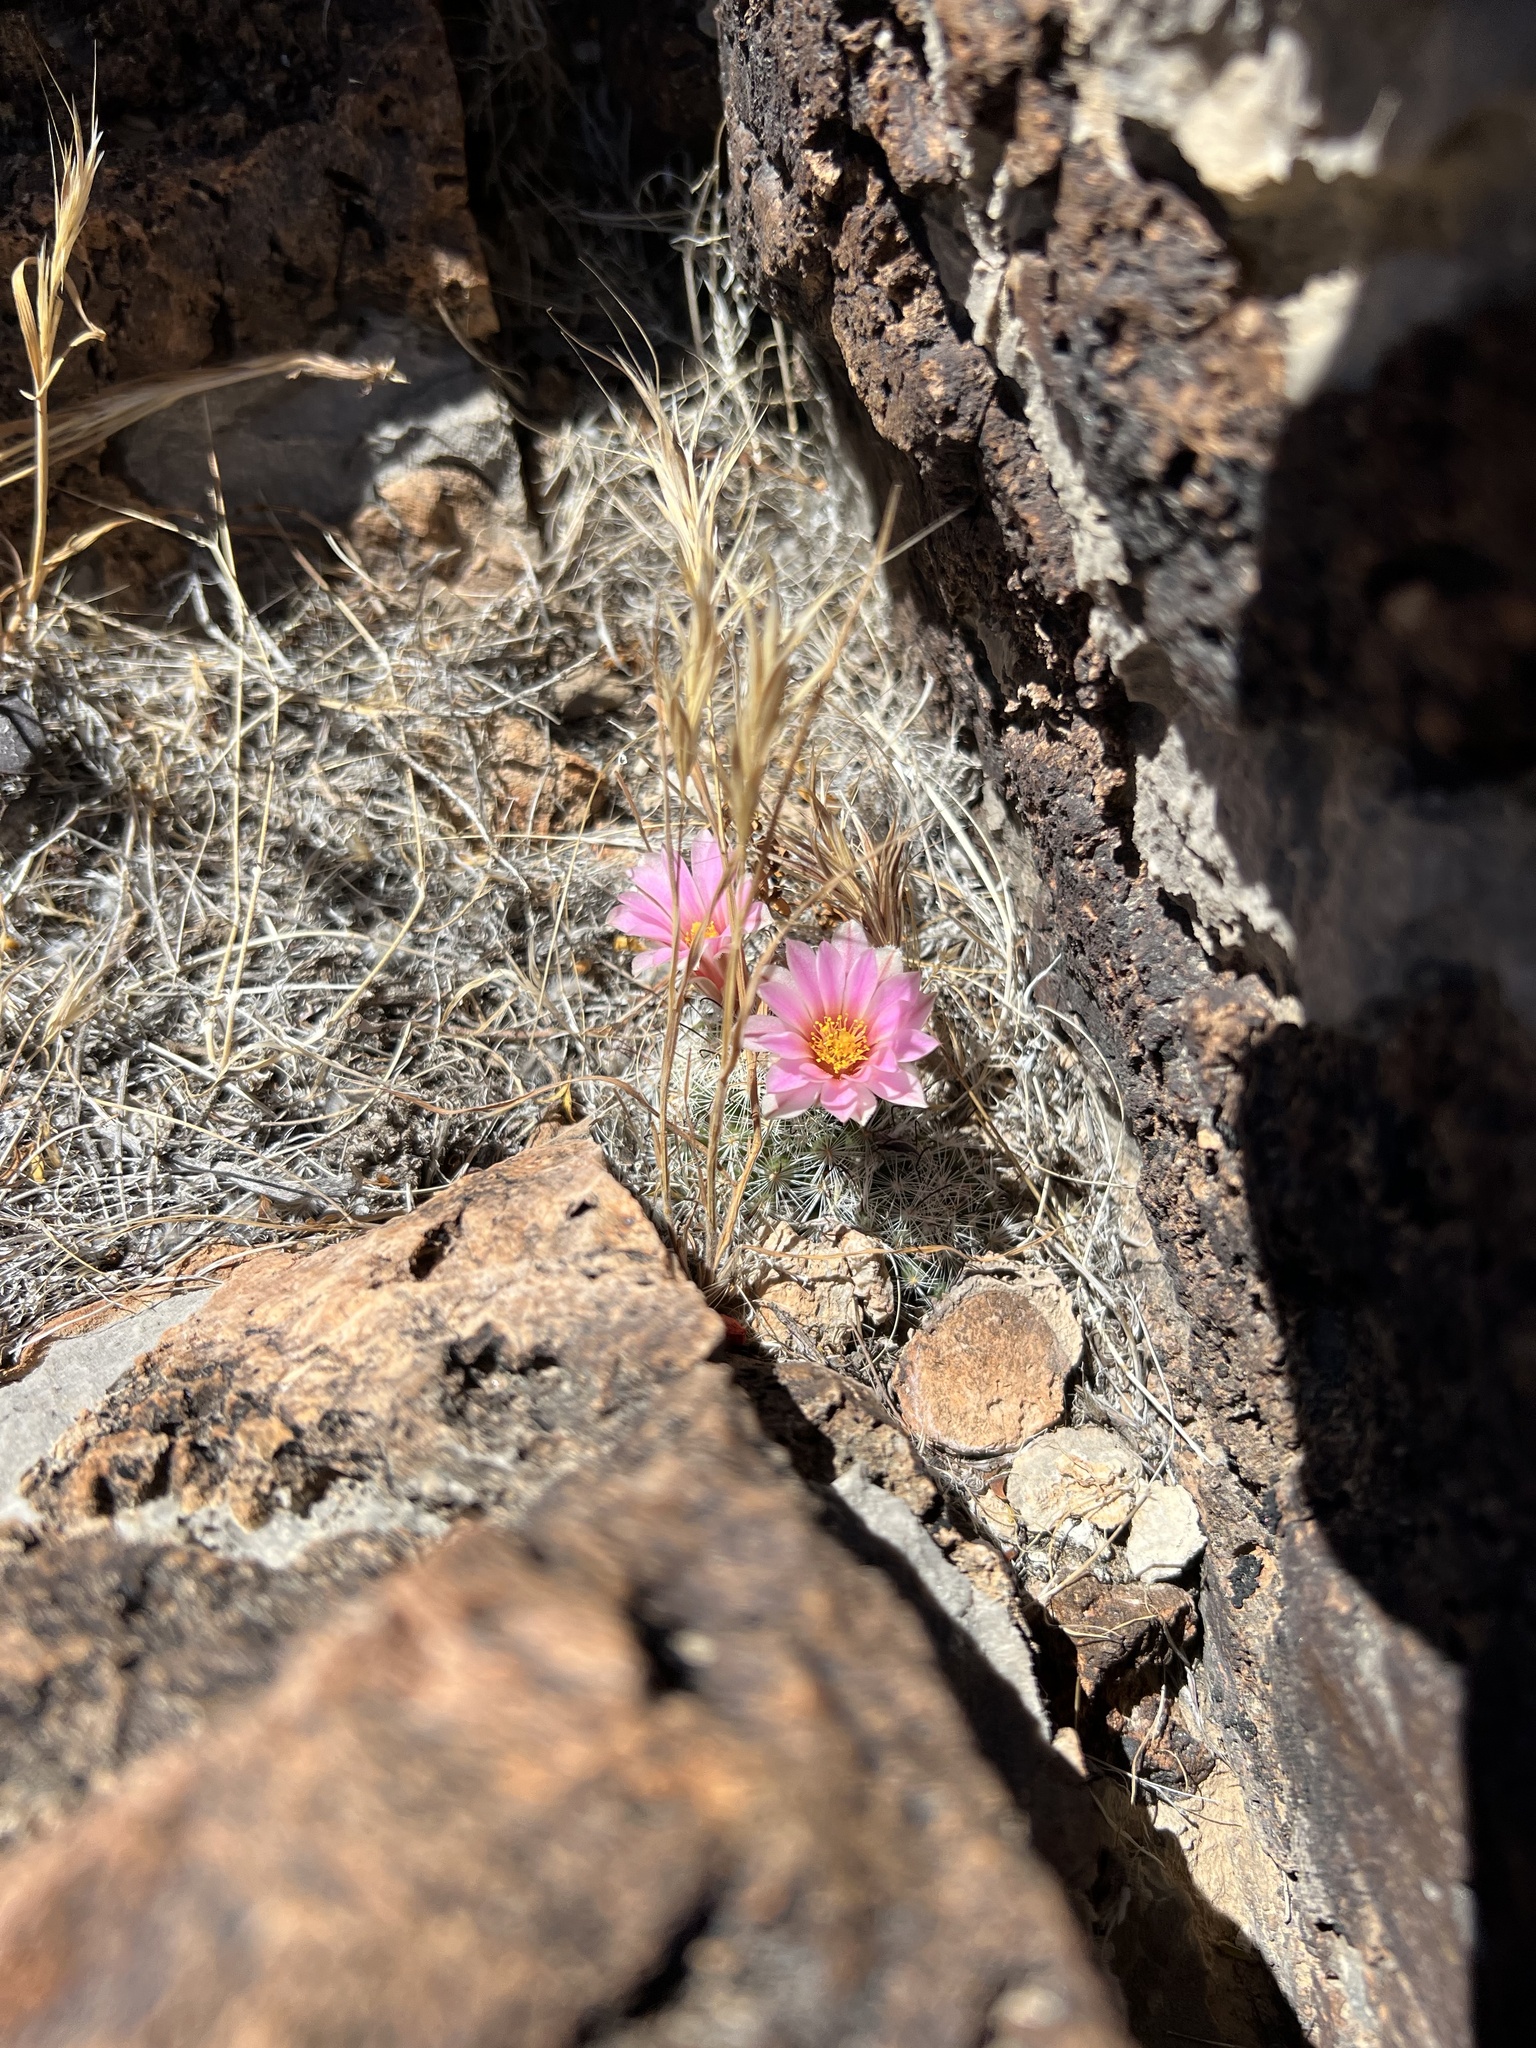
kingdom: Plantae
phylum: Tracheophyta
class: Magnoliopsida
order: Caryophyllales
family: Cactaceae
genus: Cochemiea
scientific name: Cochemiea tetrancistra
